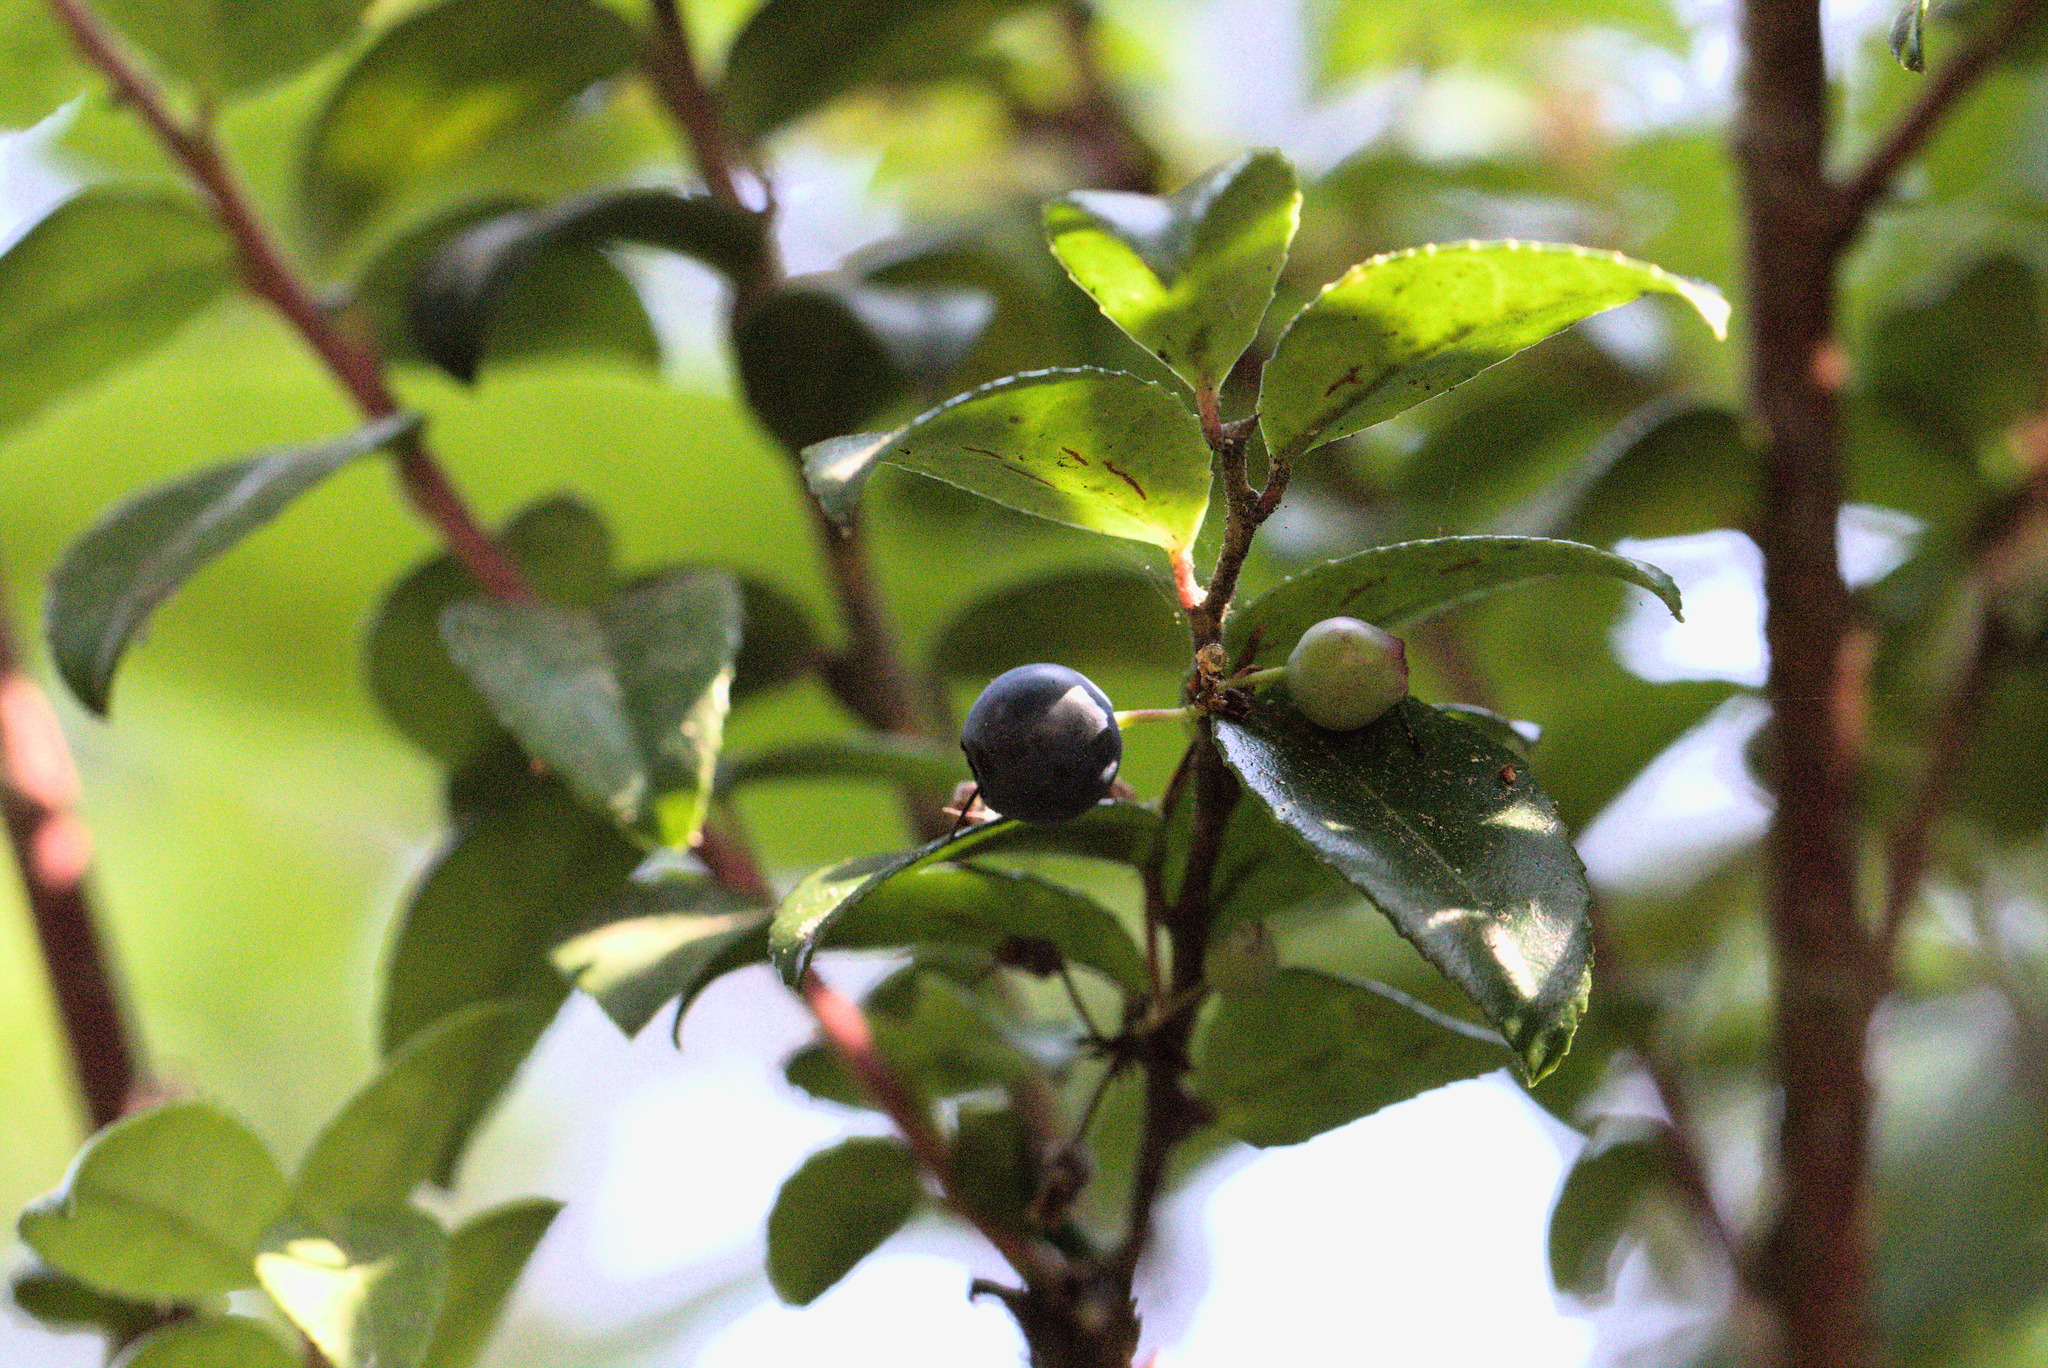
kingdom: Plantae
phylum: Tracheophyta
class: Magnoliopsida
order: Ericales
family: Ericaceae
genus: Vaccinium
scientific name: Vaccinium ovatum
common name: California-huckleberry
